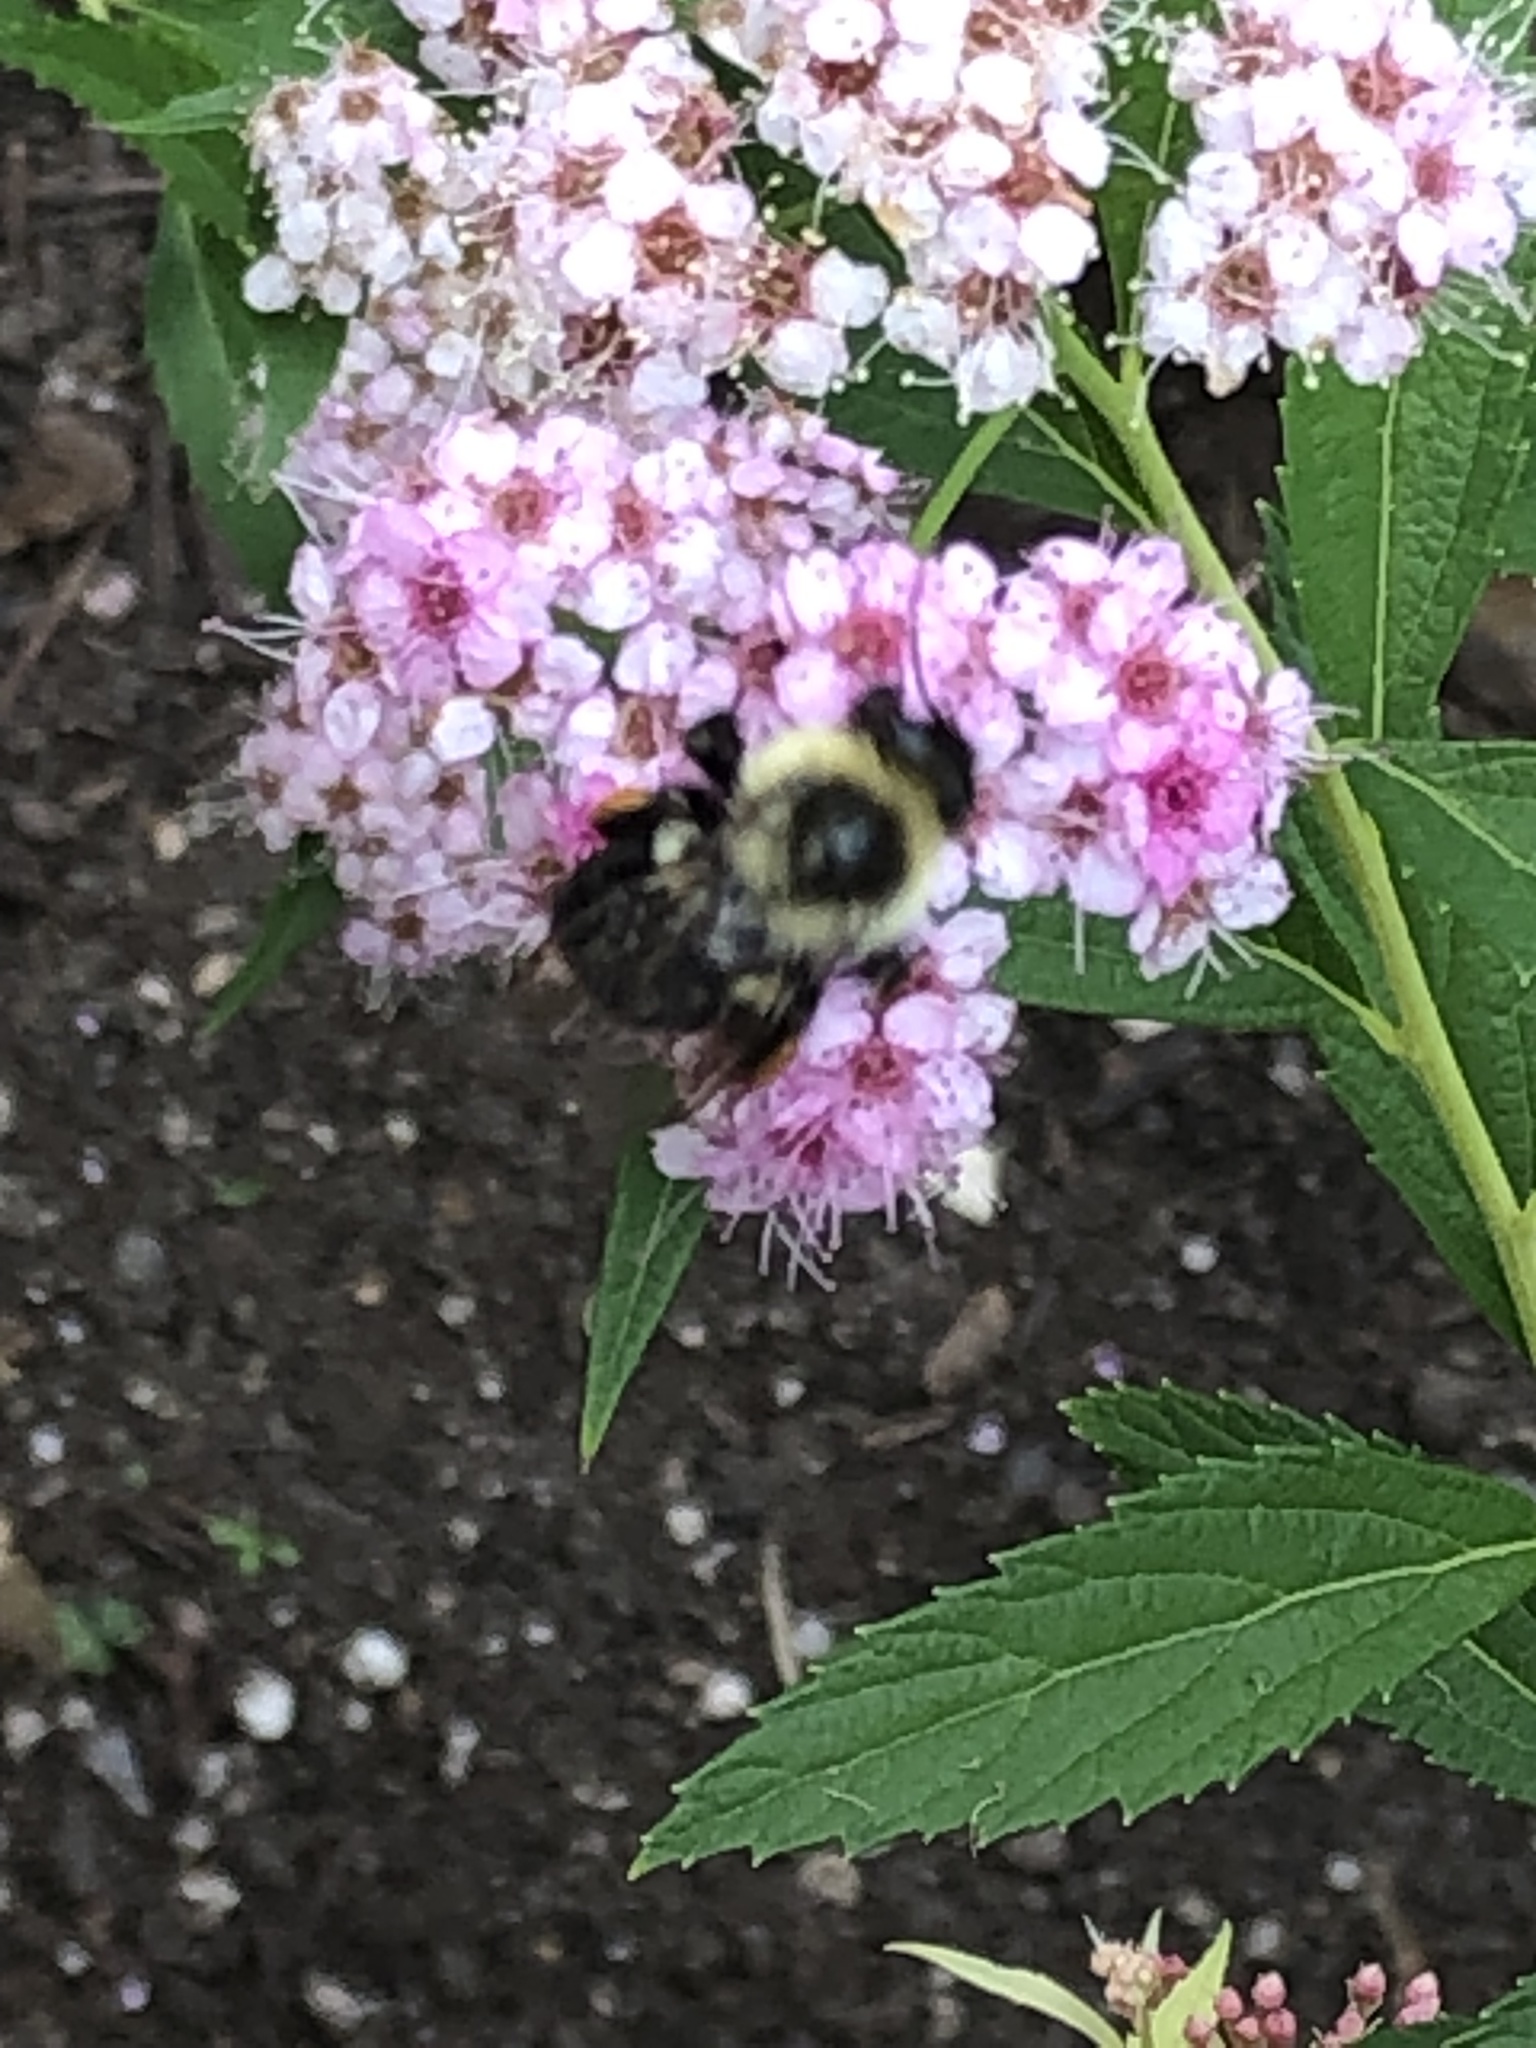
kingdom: Animalia
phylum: Arthropoda
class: Insecta
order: Hymenoptera
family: Apidae
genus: Bombus
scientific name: Bombus impatiens
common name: Common eastern bumble bee
